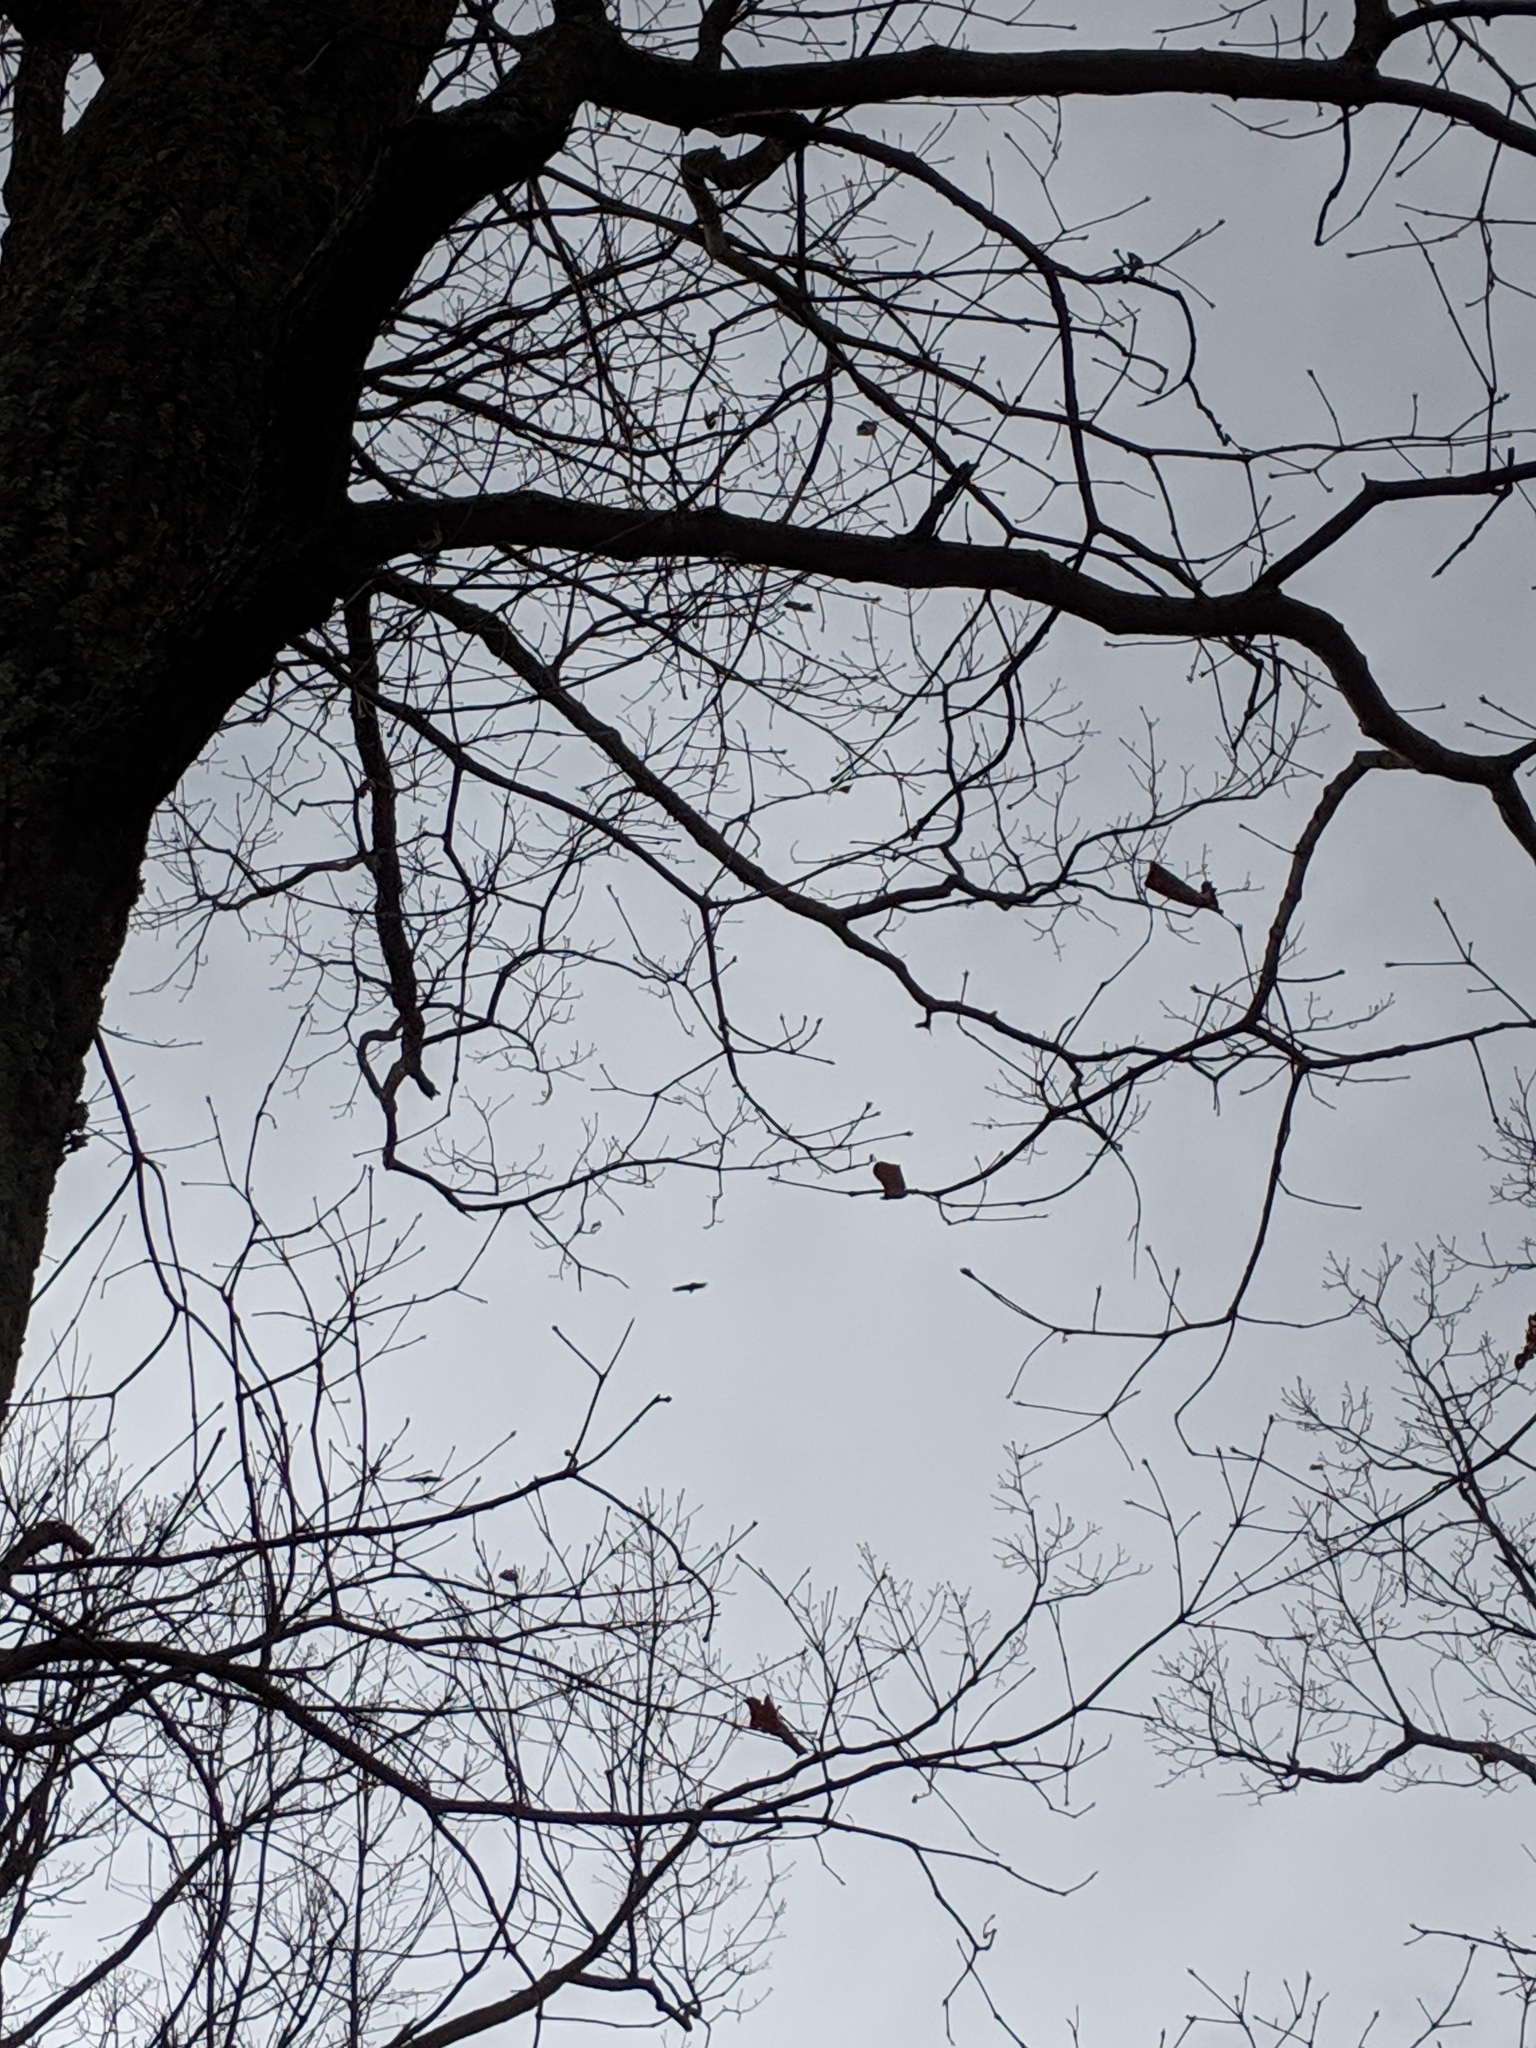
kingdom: Animalia
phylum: Chordata
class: Aves
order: Accipitriformes
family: Cathartidae
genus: Coragyps
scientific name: Coragyps atratus
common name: Black vulture
